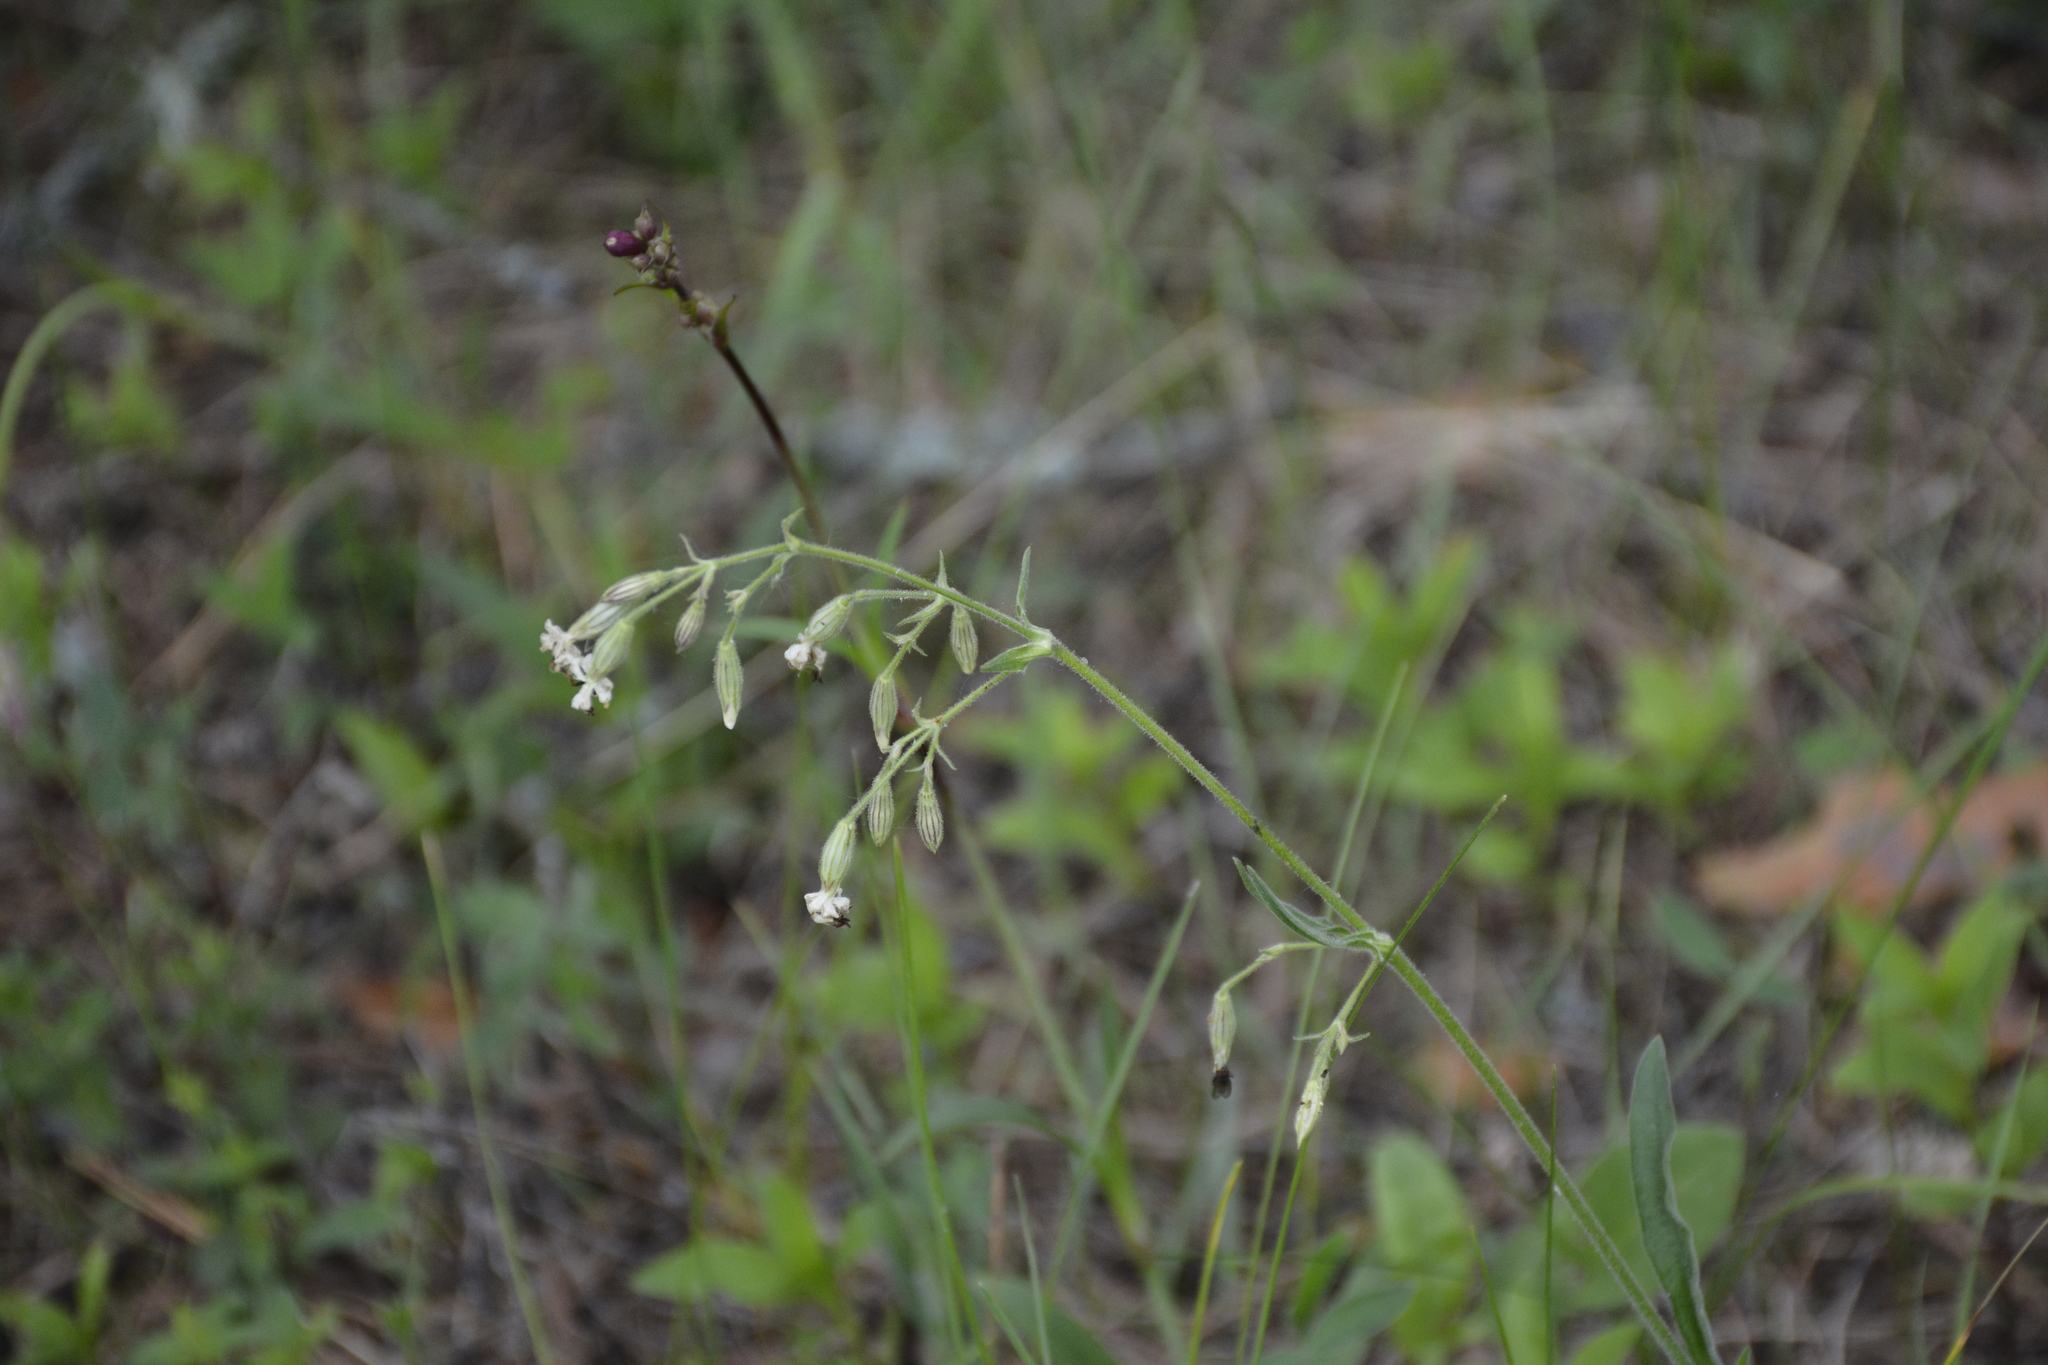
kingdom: Plantae
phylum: Tracheophyta
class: Magnoliopsida
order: Caryophyllales
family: Caryophyllaceae
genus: Silene
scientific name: Silene nutans
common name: Nottingham catchfly
